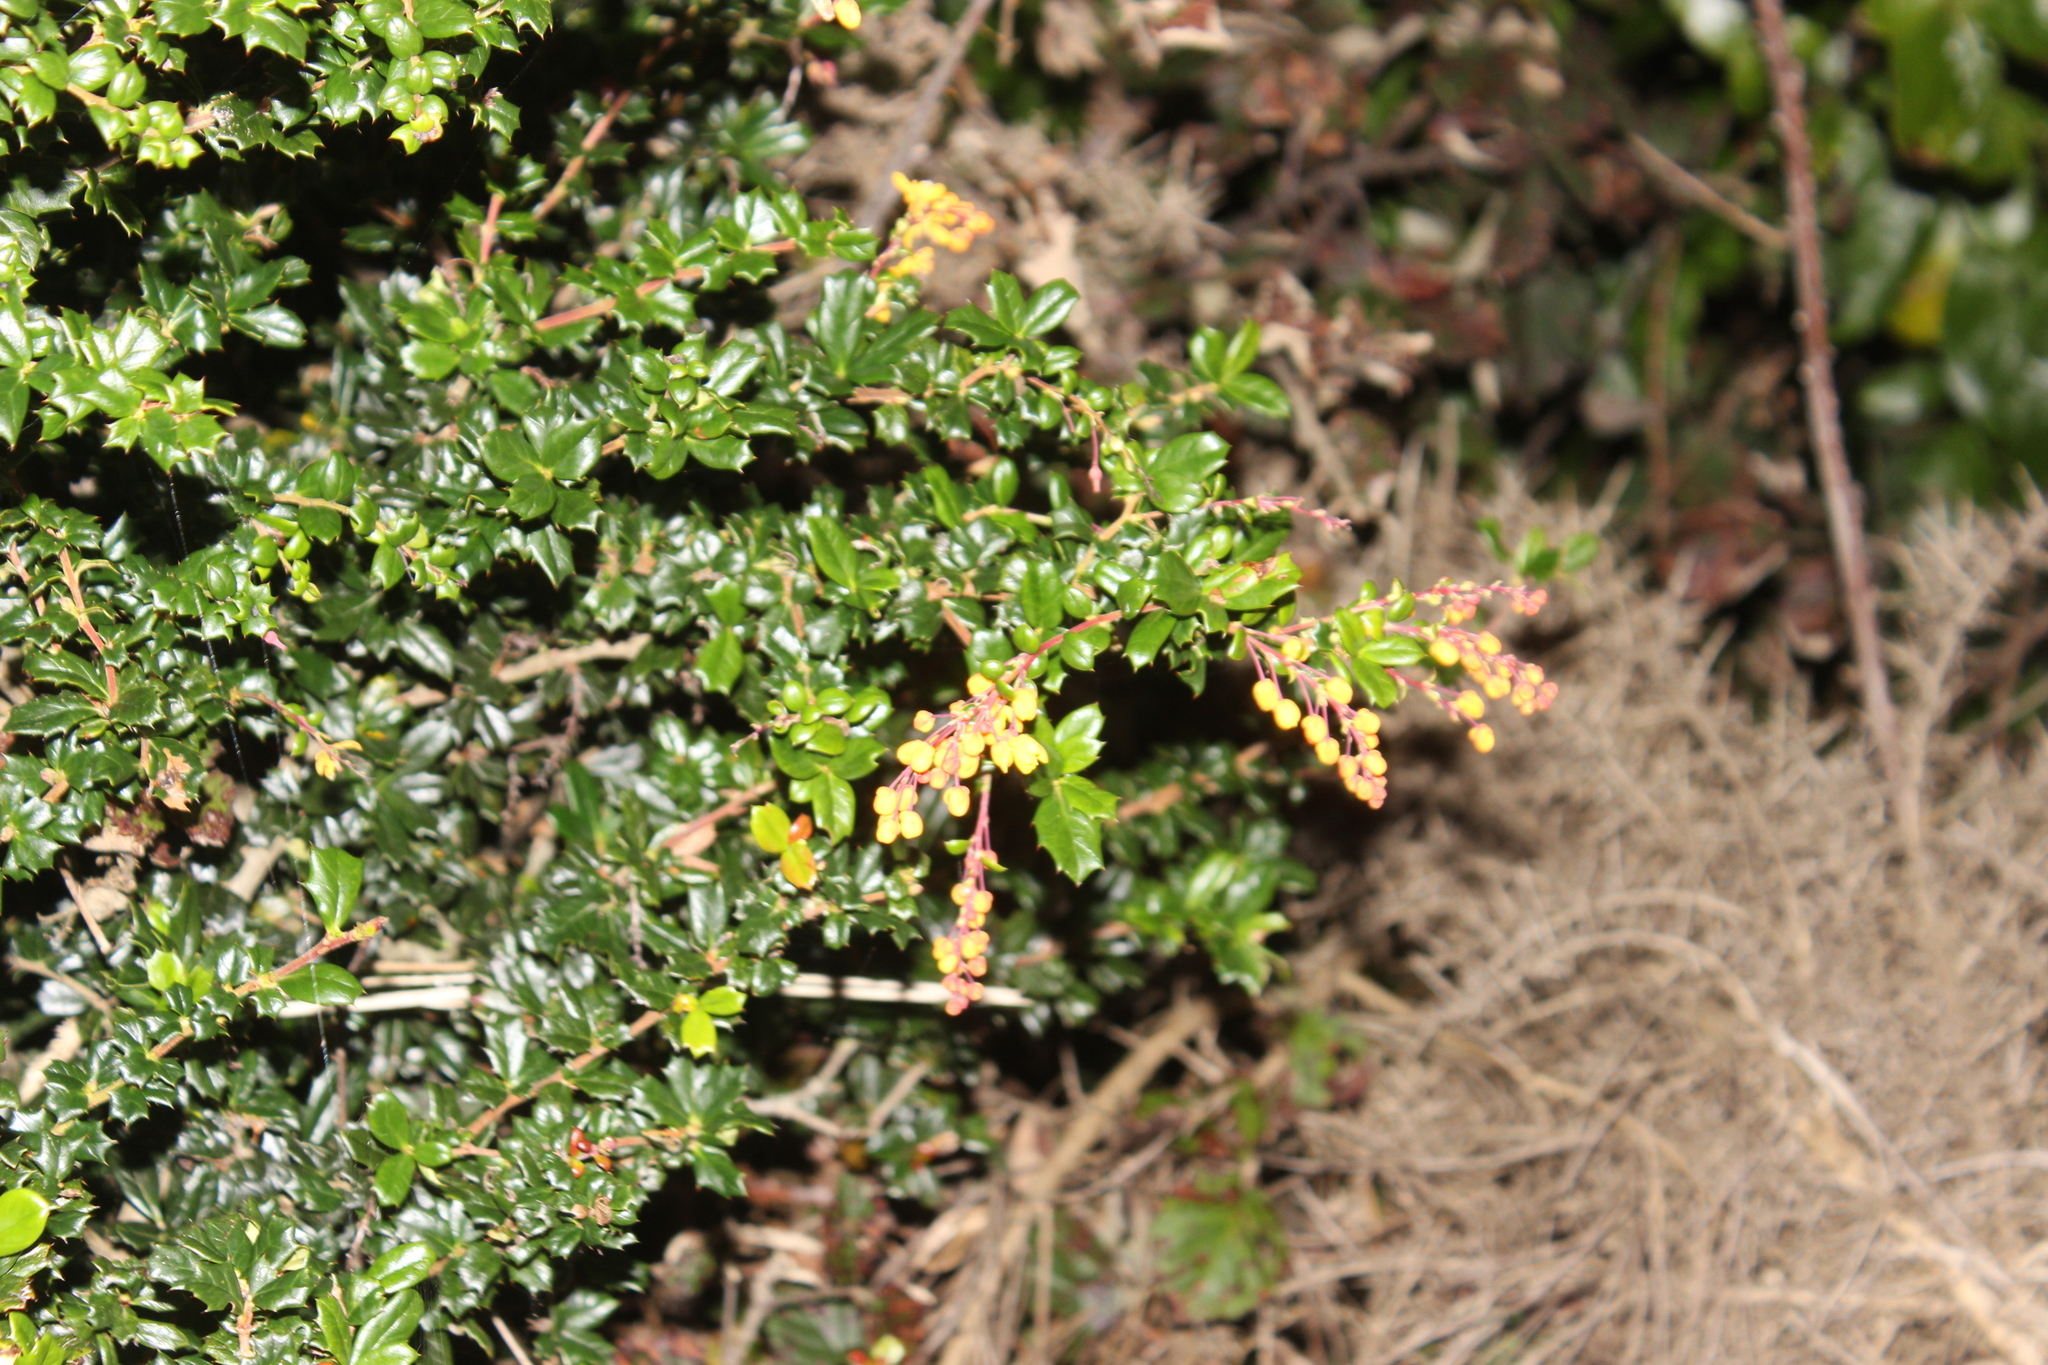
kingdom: Plantae
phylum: Tracheophyta
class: Magnoliopsida
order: Ranunculales
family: Berberidaceae
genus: Berberis
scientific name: Berberis darwinii
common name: Darwin's barberry
